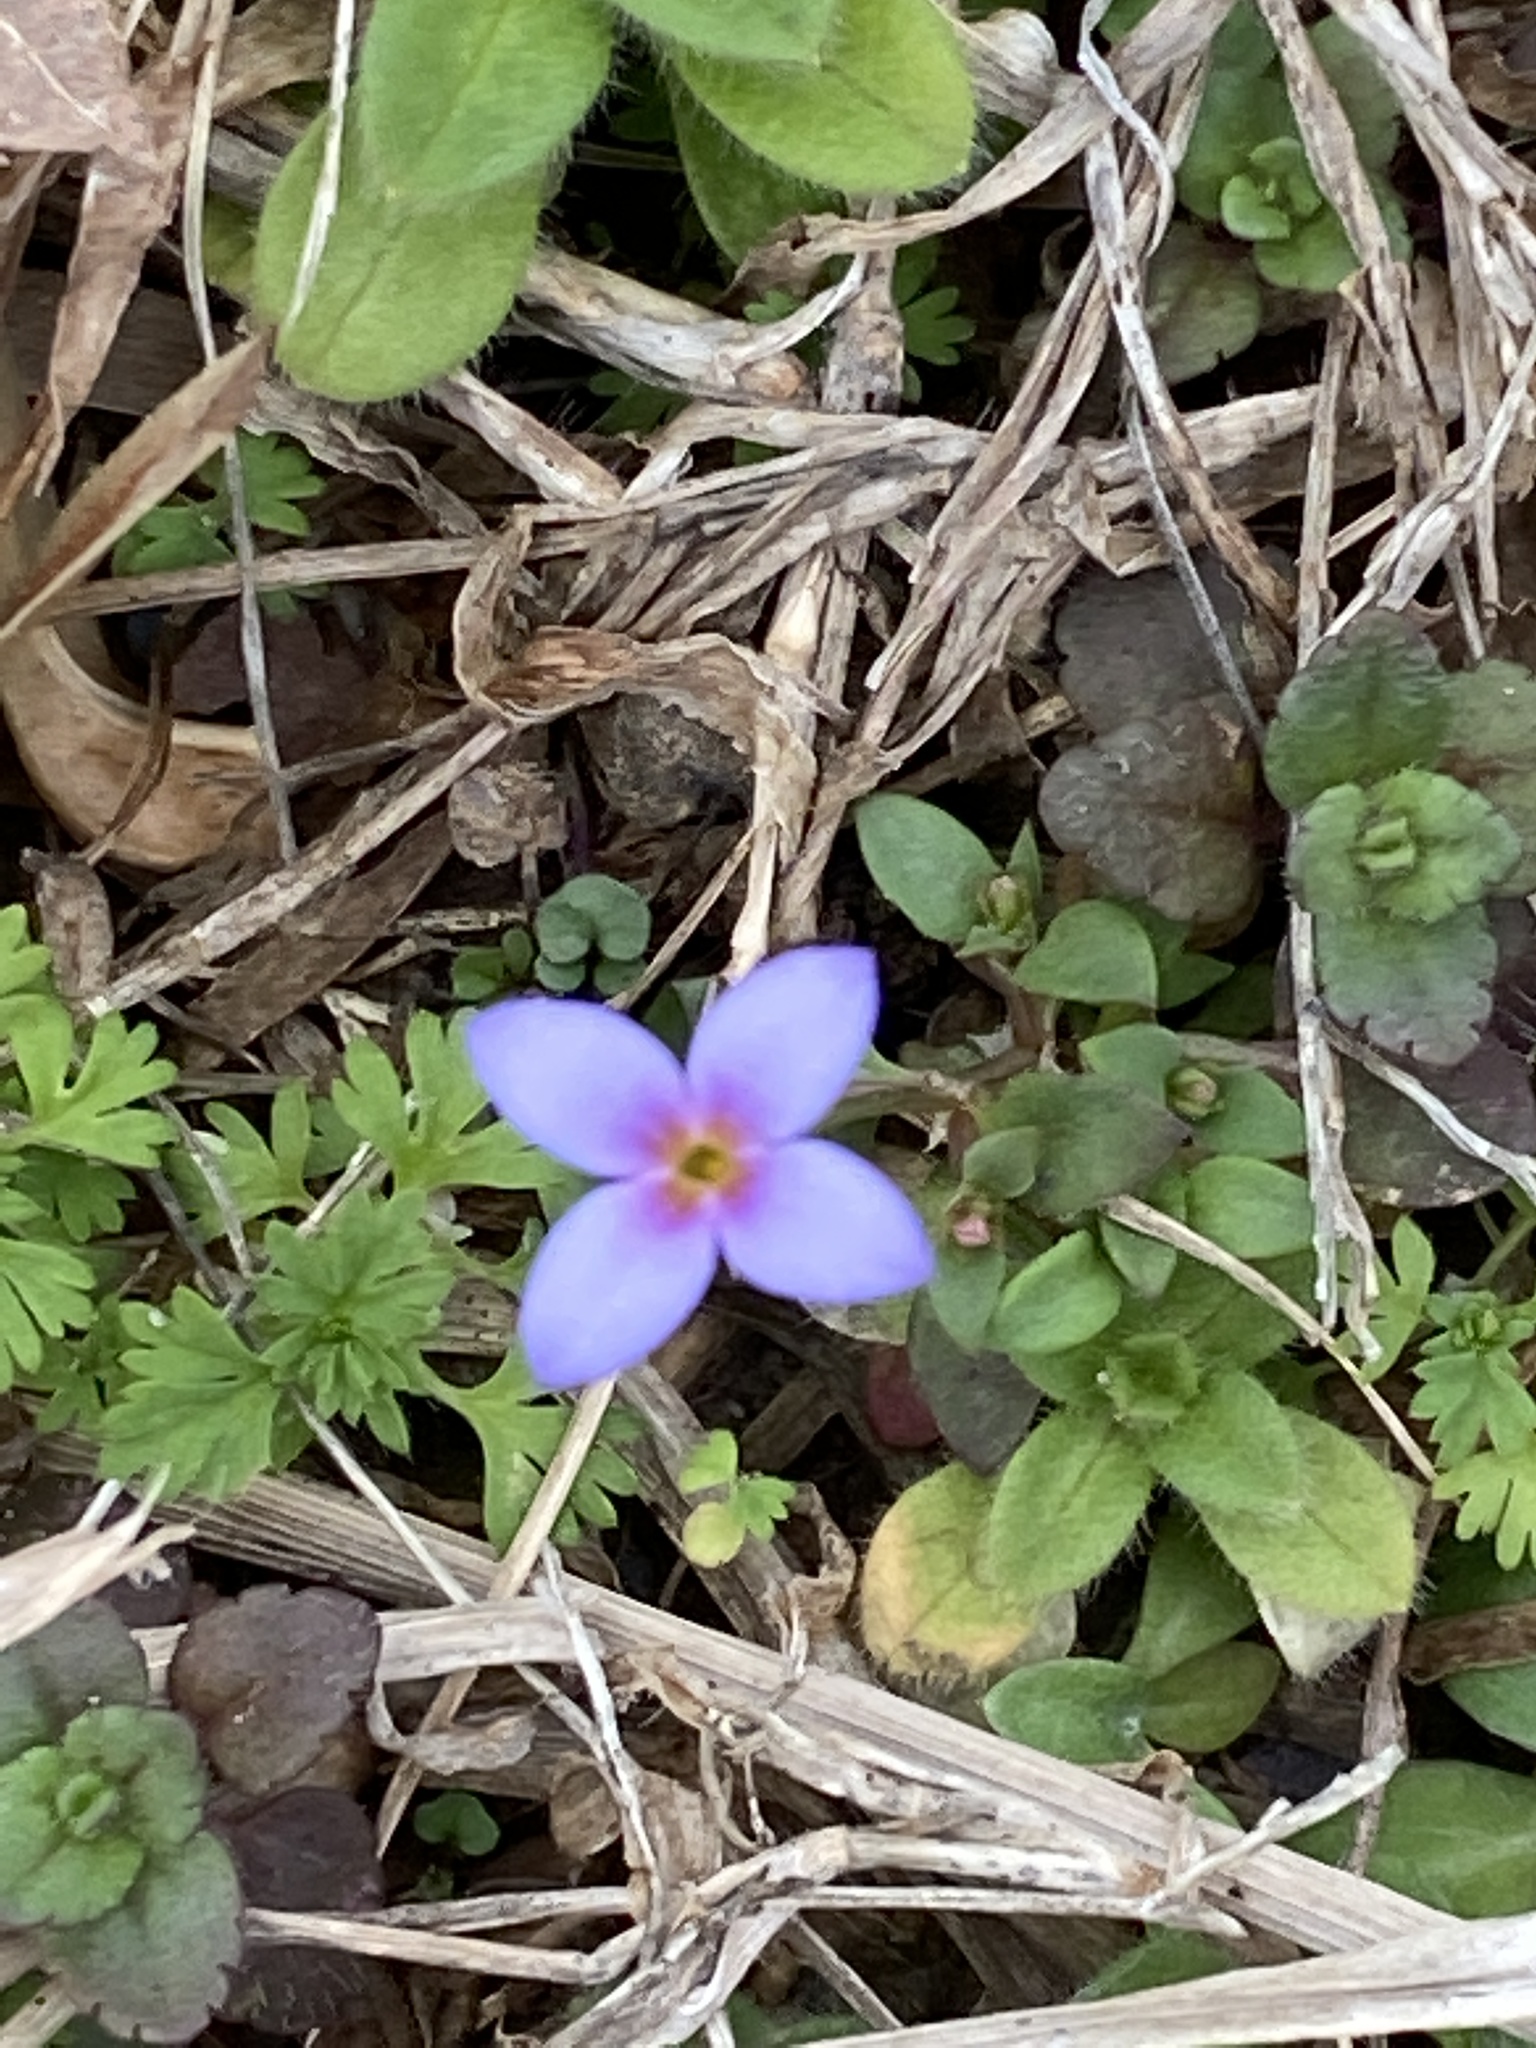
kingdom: Plantae
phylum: Tracheophyta
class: Magnoliopsida
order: Gentianales
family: Rubiaceae
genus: Houstonia
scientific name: Houstonia pusilla
